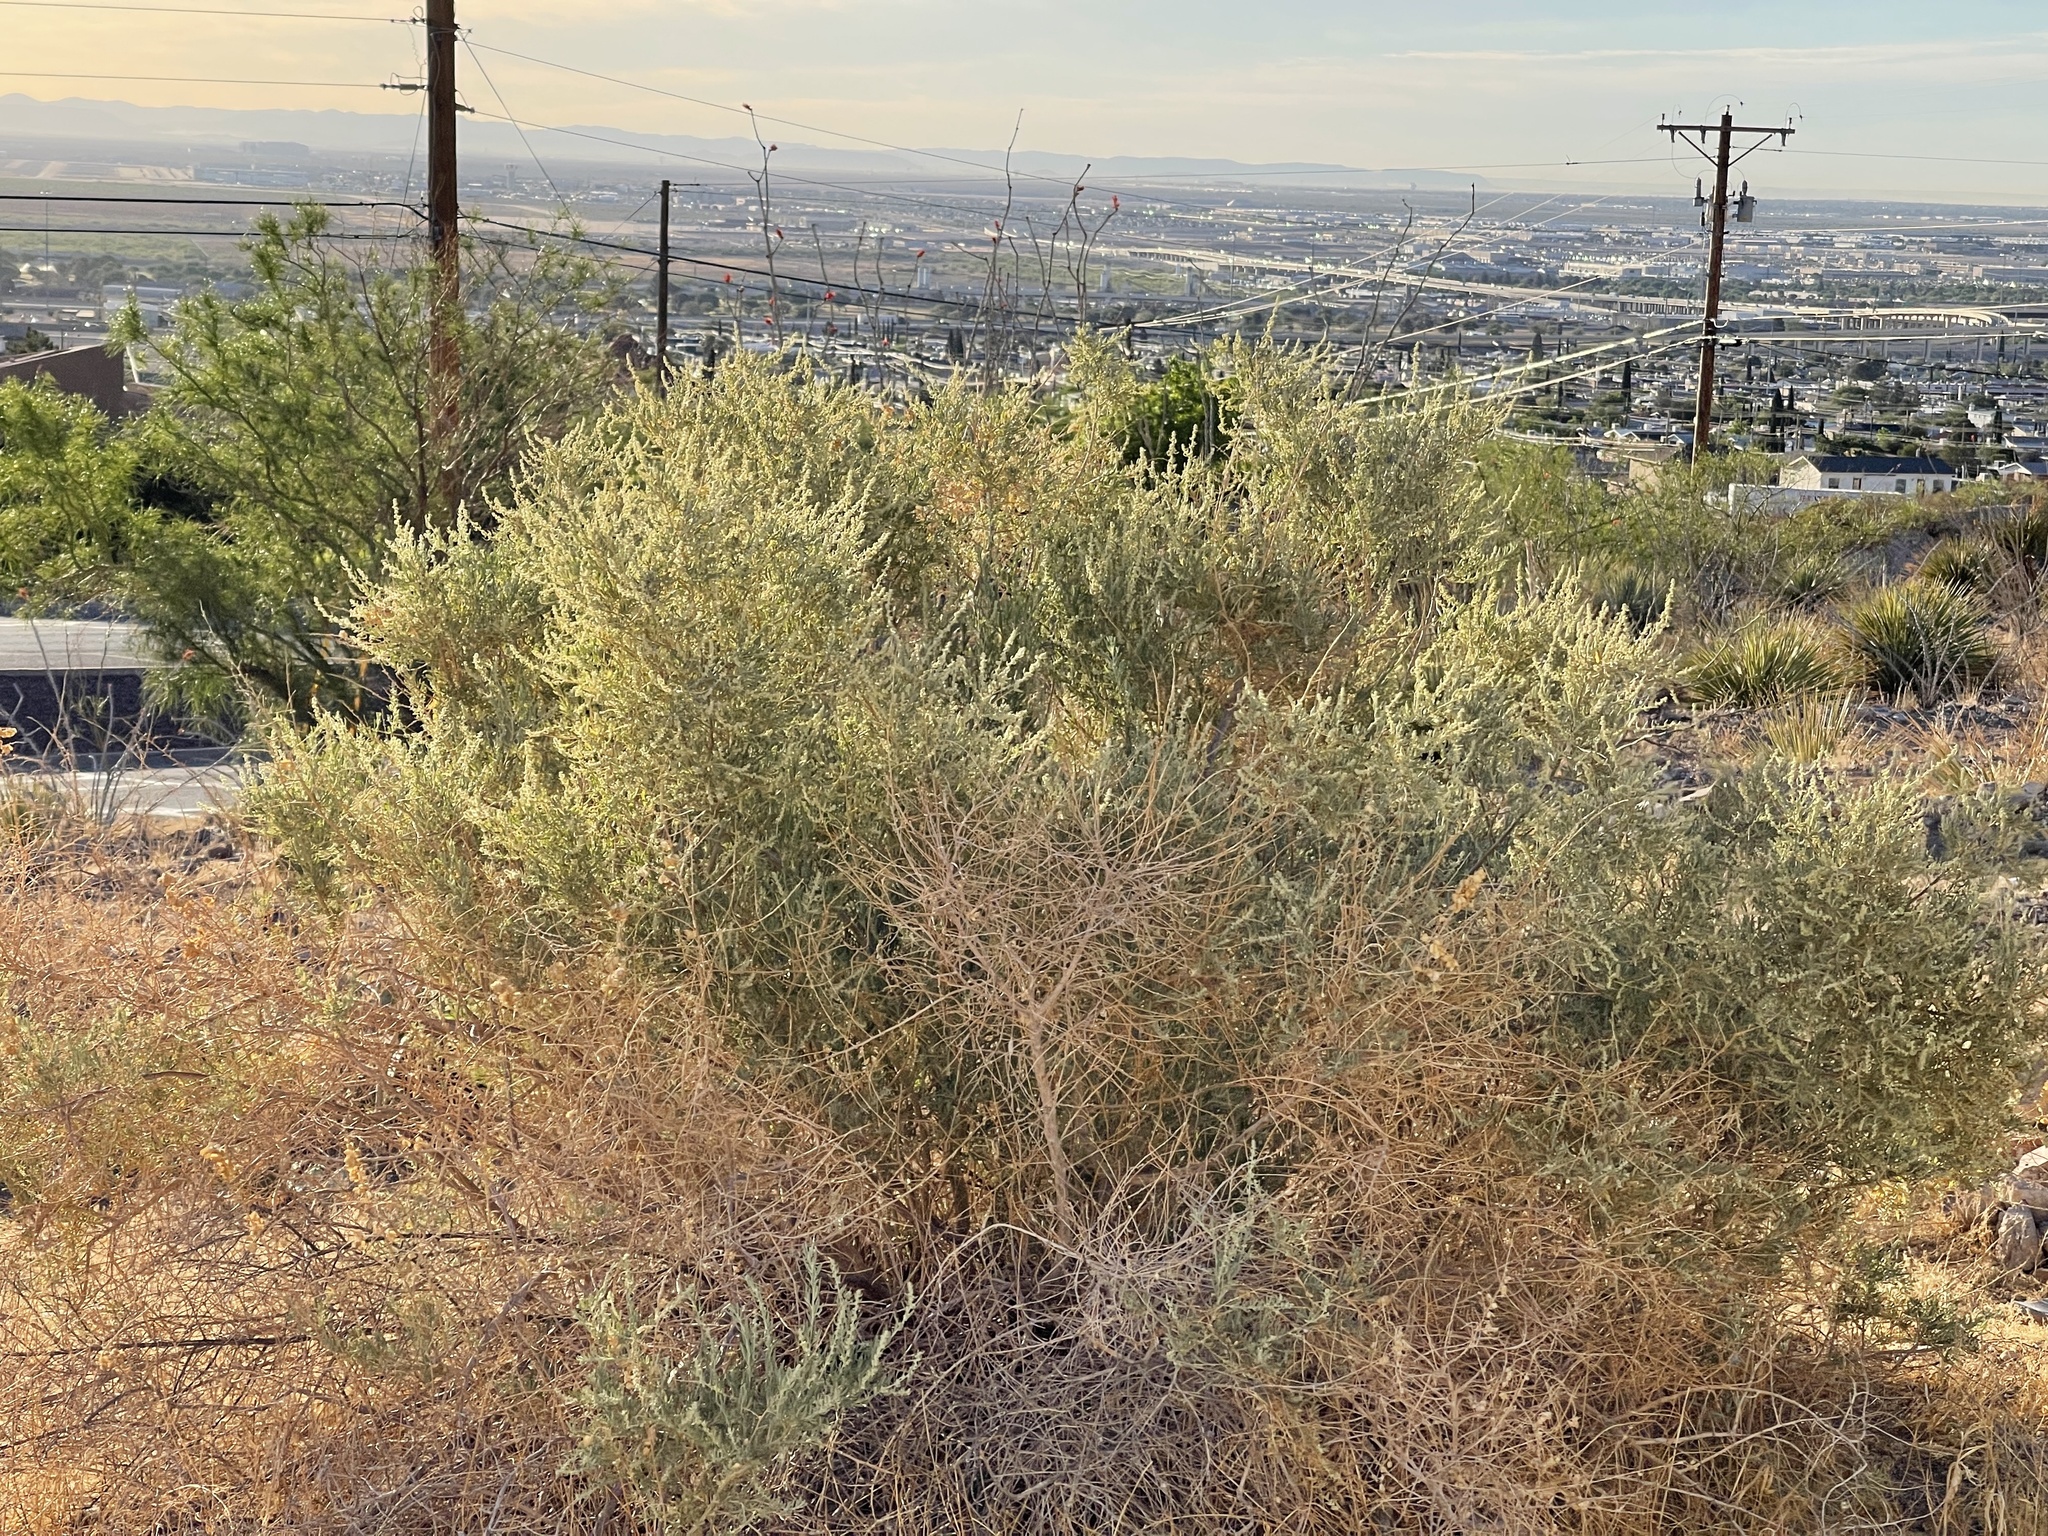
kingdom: Plantae
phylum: Tracheophyta
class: Magnoliopsida
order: Caryophyllales
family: Amaranthaceae
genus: Atriplex
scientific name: Atriplex canescens
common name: Four-wing saltbush
